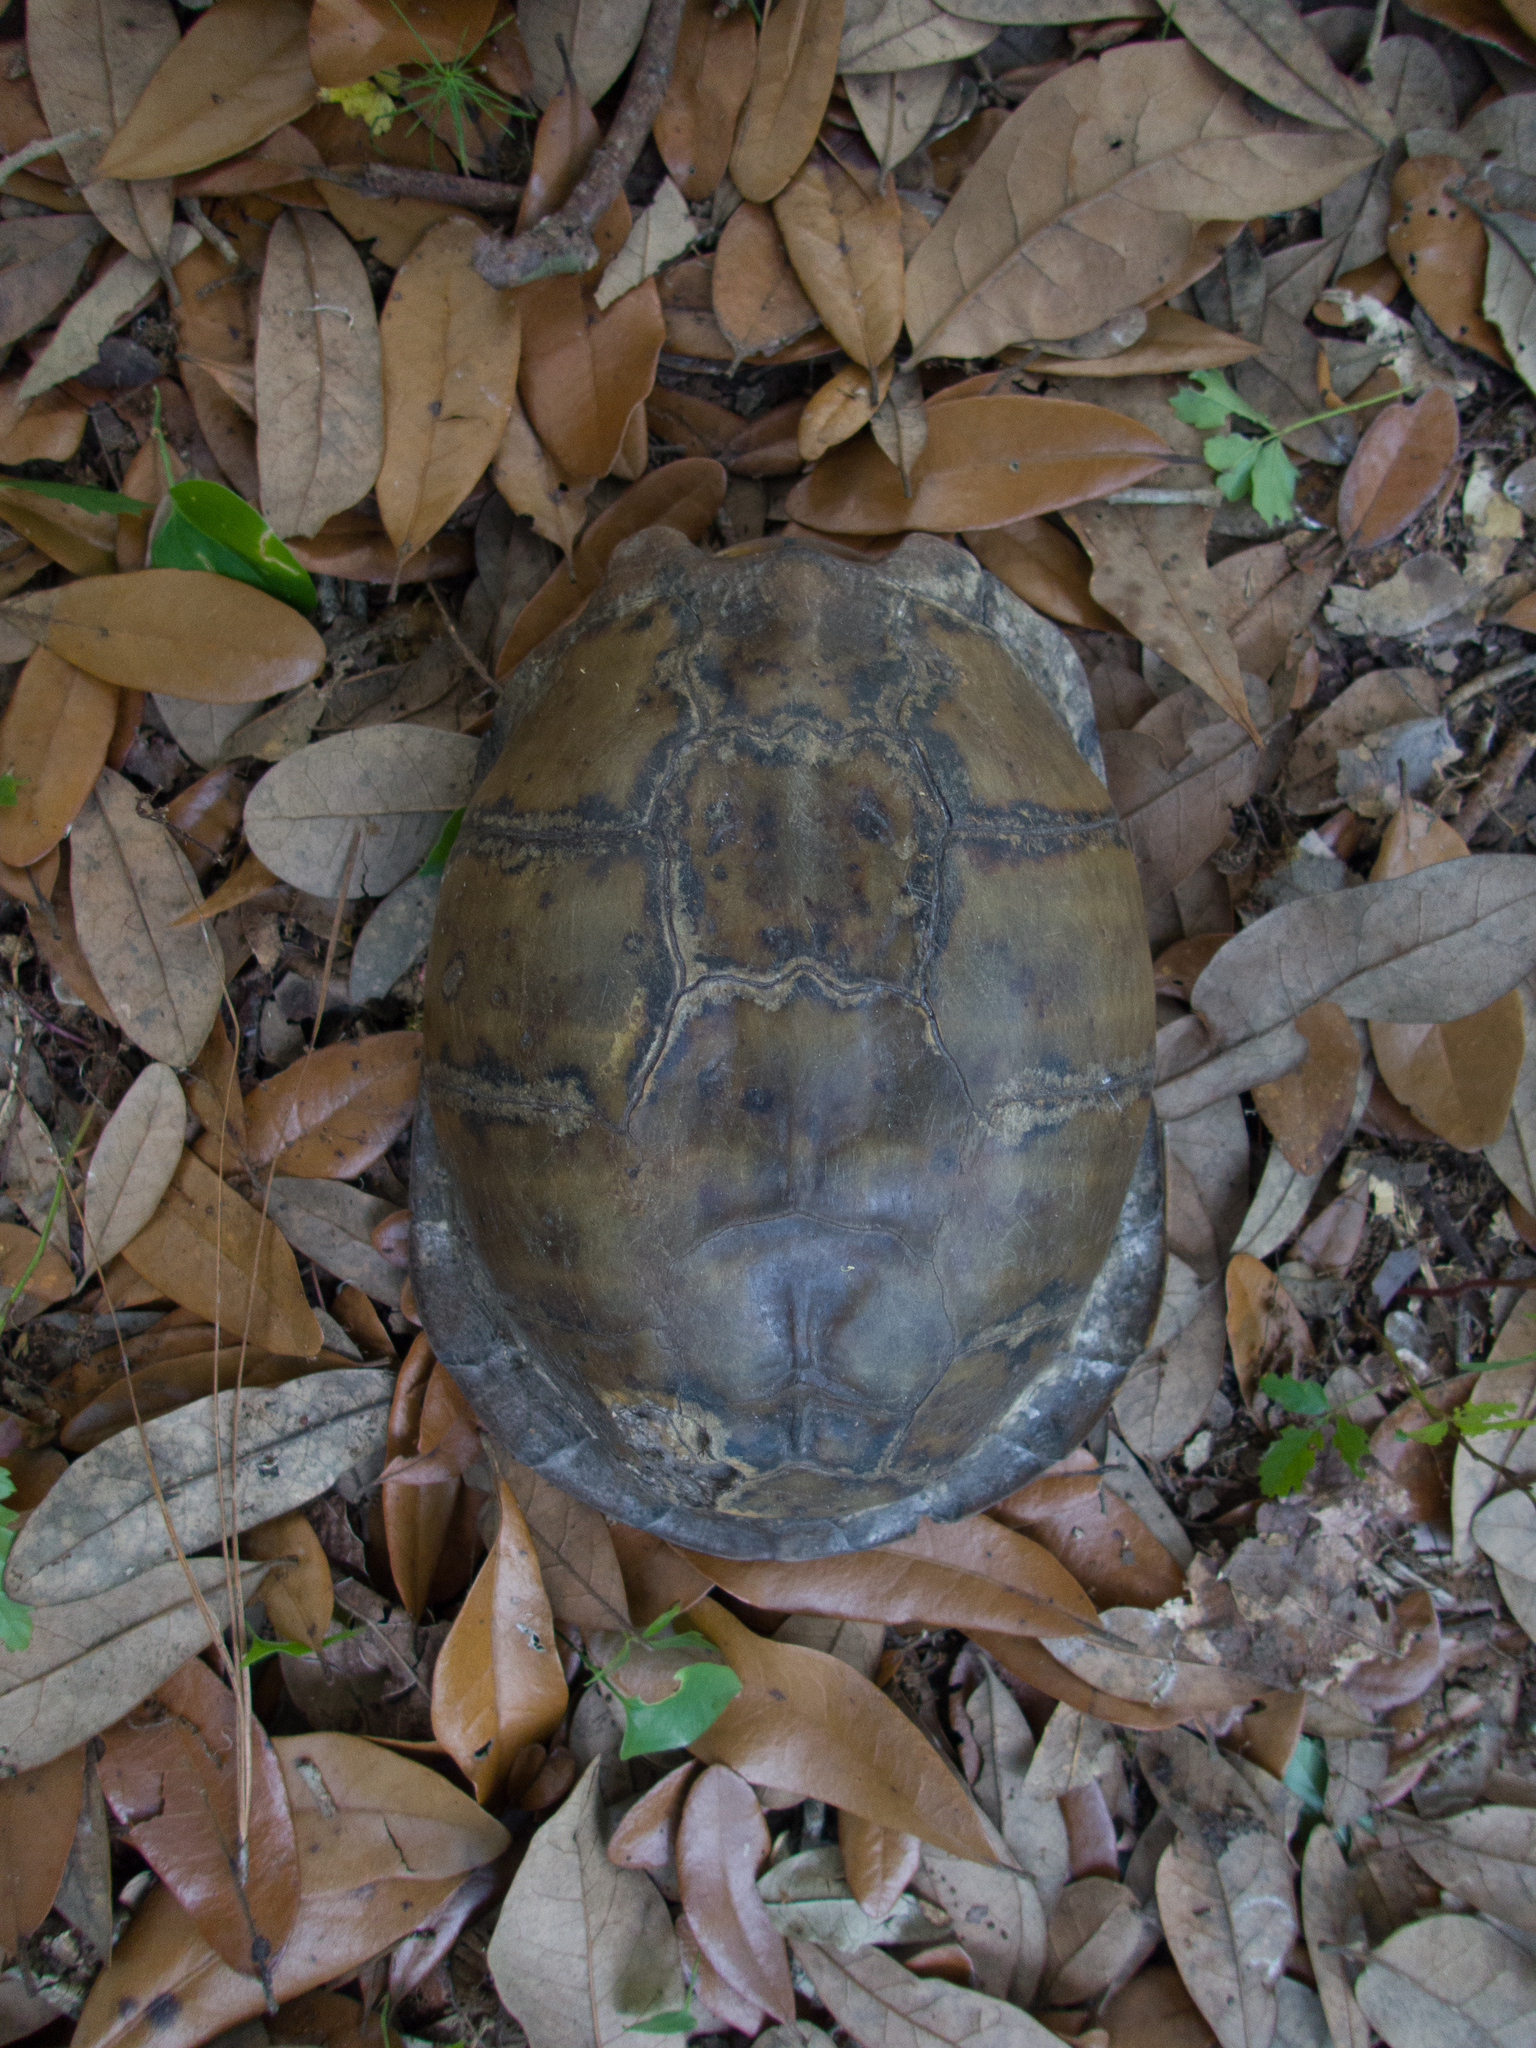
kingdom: Animalia
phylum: Chordata
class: Testudines
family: Emydidae
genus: Terrapene
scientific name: Terrapene carolina
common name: Common box turtle
